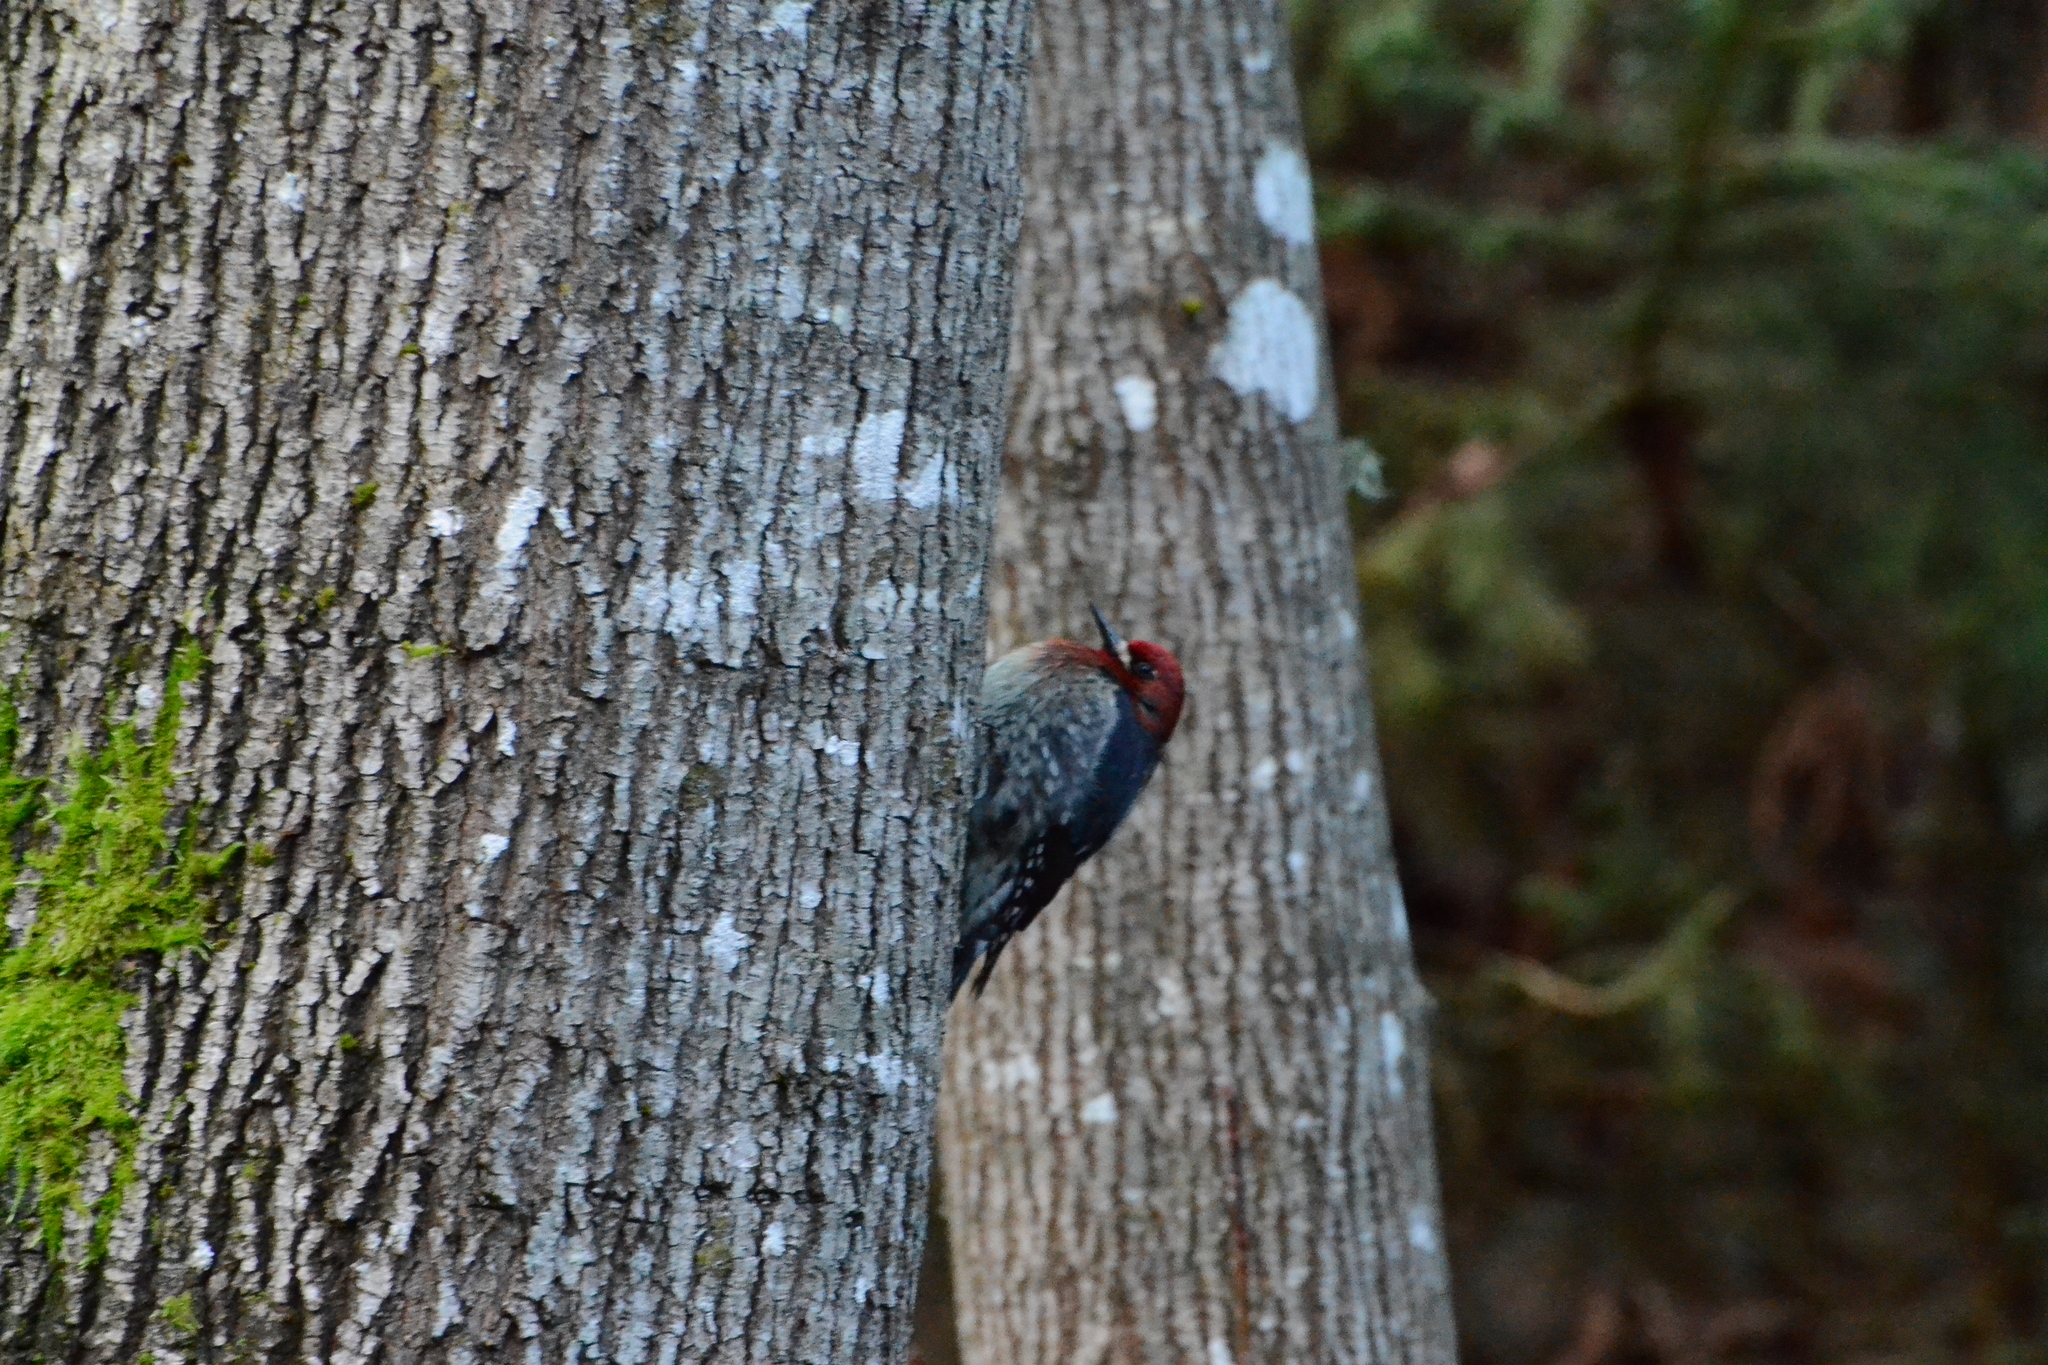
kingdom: Animalia
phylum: Chordata
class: Aves
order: Piciformes
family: Picidae
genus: Sphyrapicus
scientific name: Sphyrapicus ruber
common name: Red-breasted sapsucker
